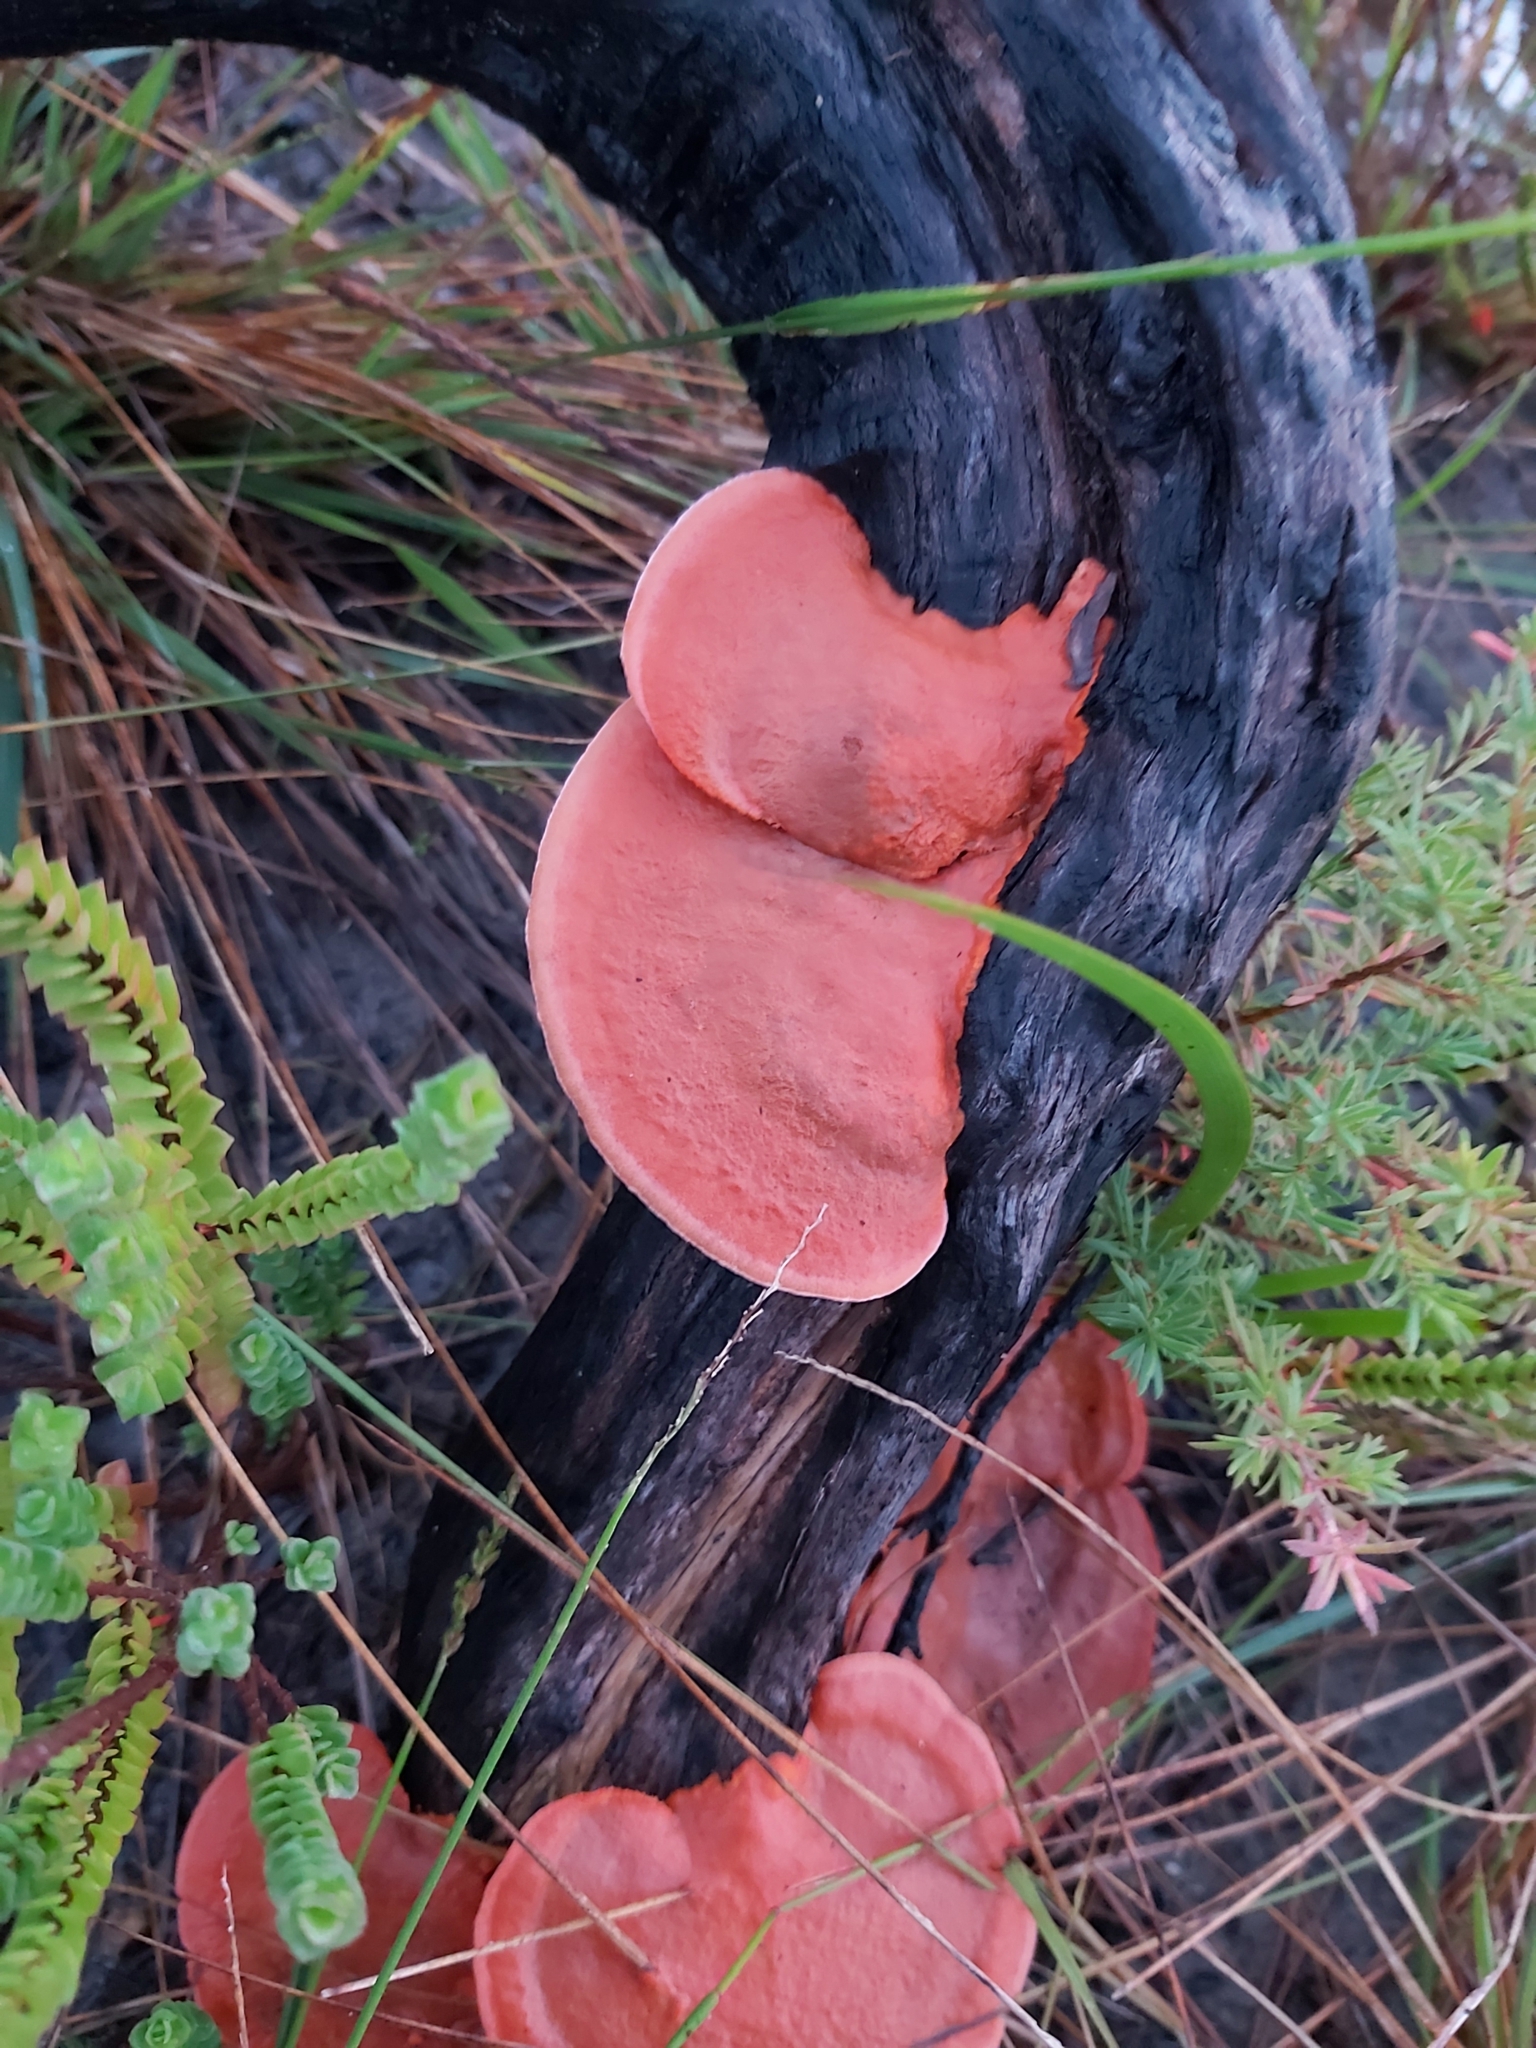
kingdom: Fungi
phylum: Basidiomycota
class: Agaricomycetes
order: Polyporales
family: Polyporaceae
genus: Trametes
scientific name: Trametes coccinea
